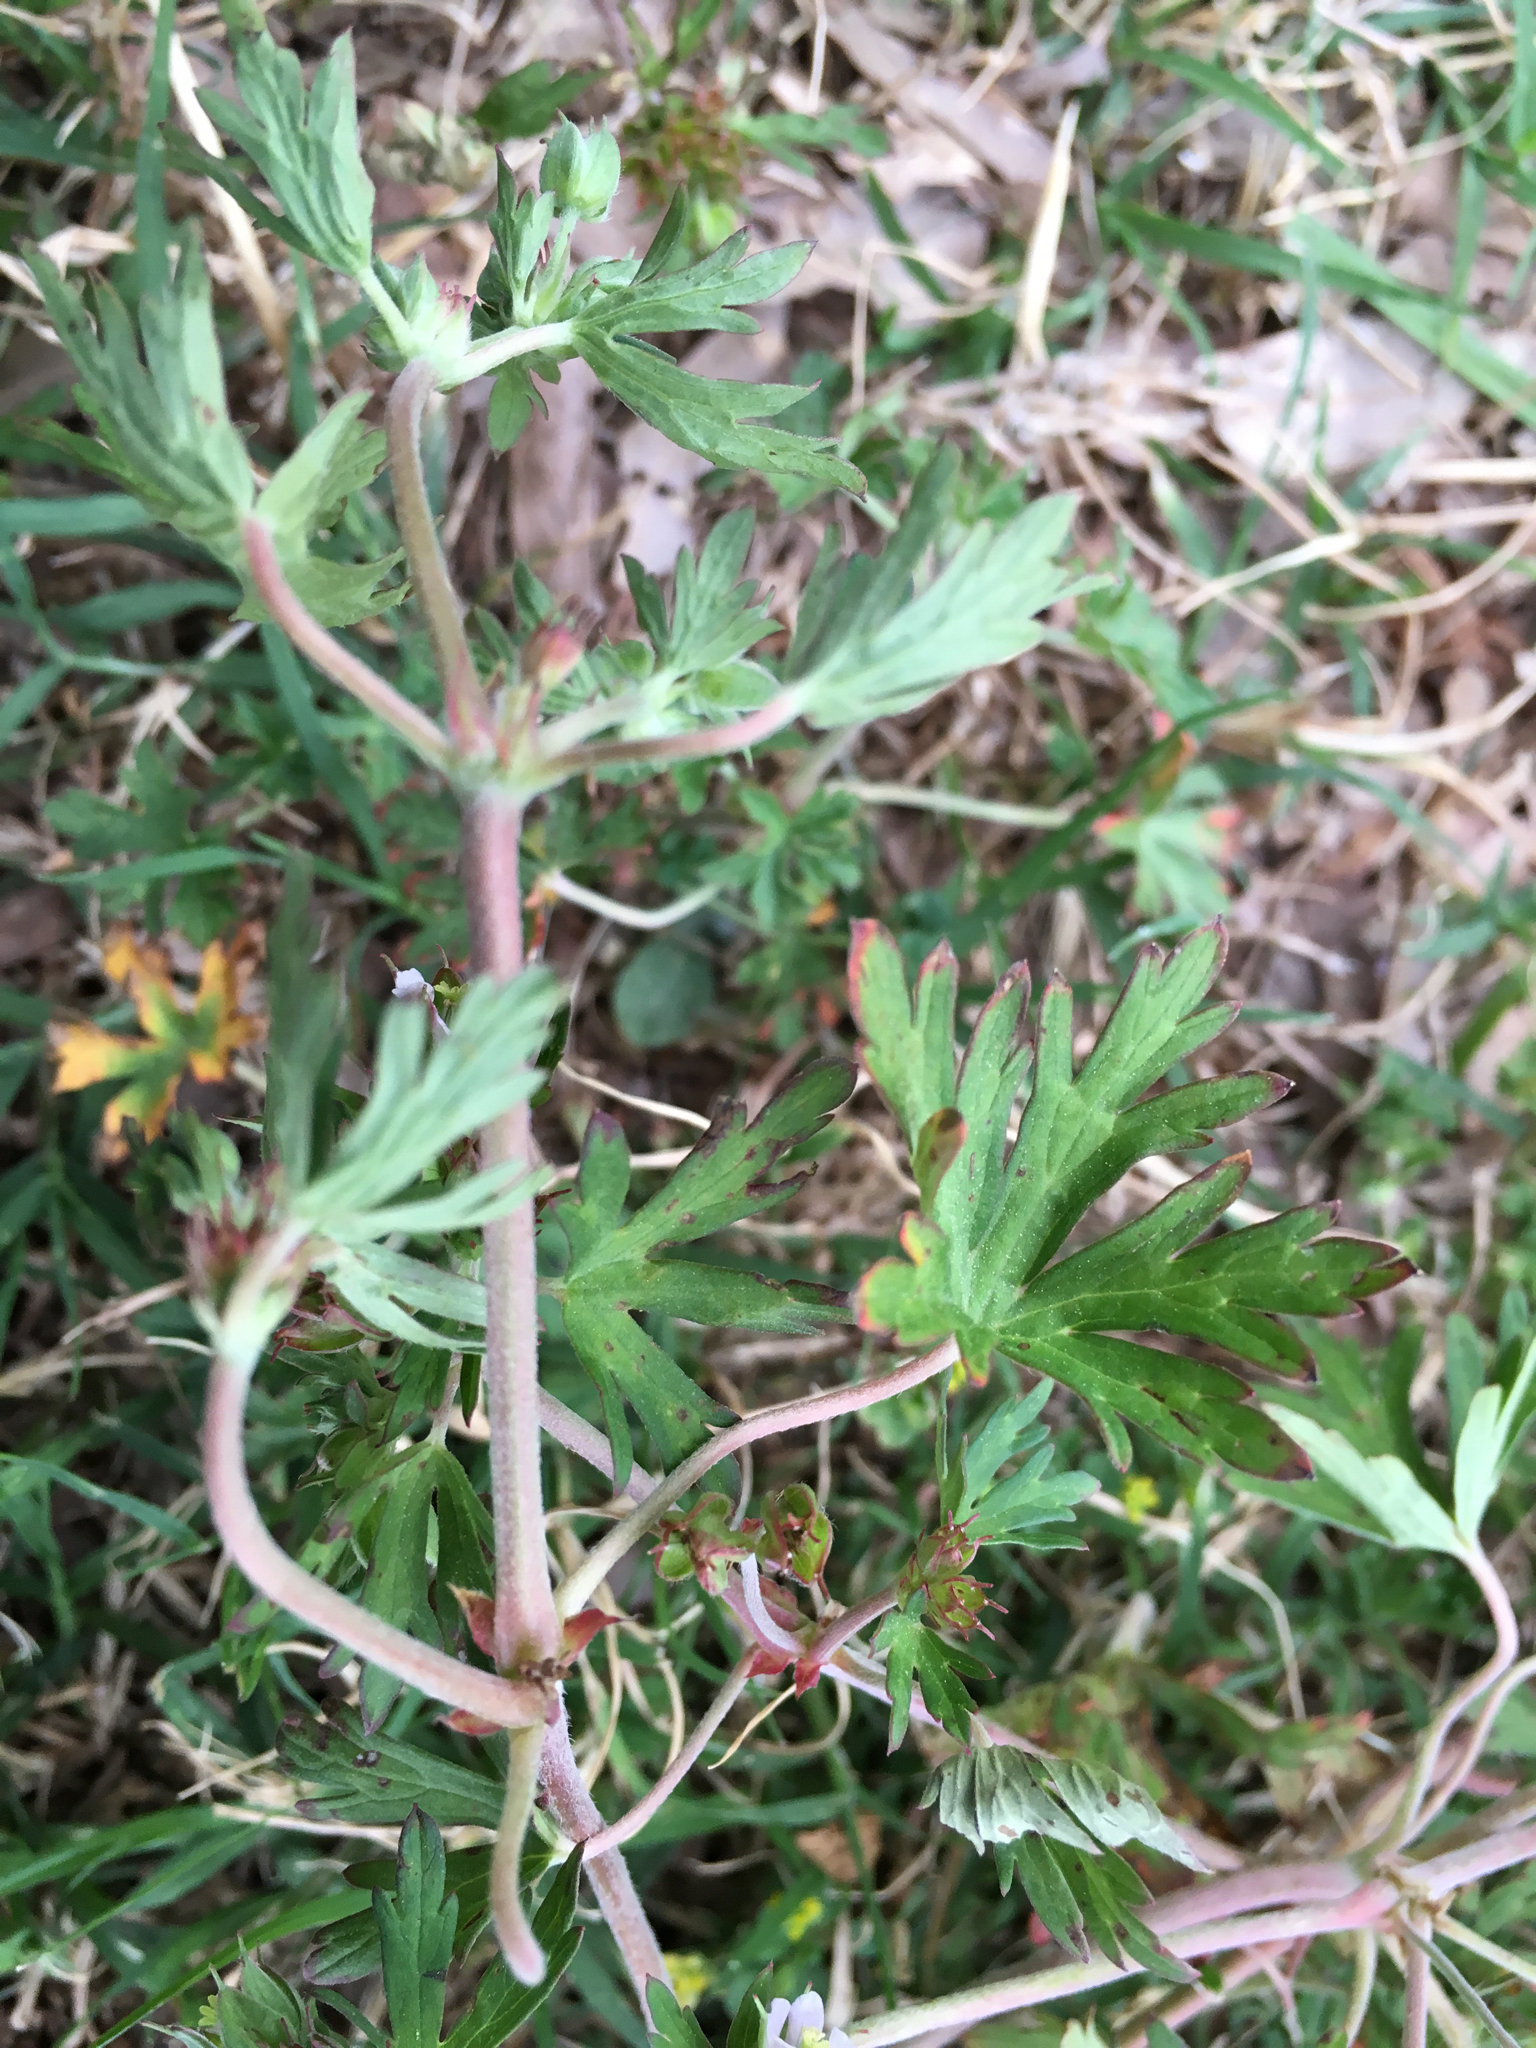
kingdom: Plantae
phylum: Tracheophyta
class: Magnoliopsida
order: Geraniales
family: Geraniaceae
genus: Geranium
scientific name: Geranium carolinianum
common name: Carolina crane's-bill
